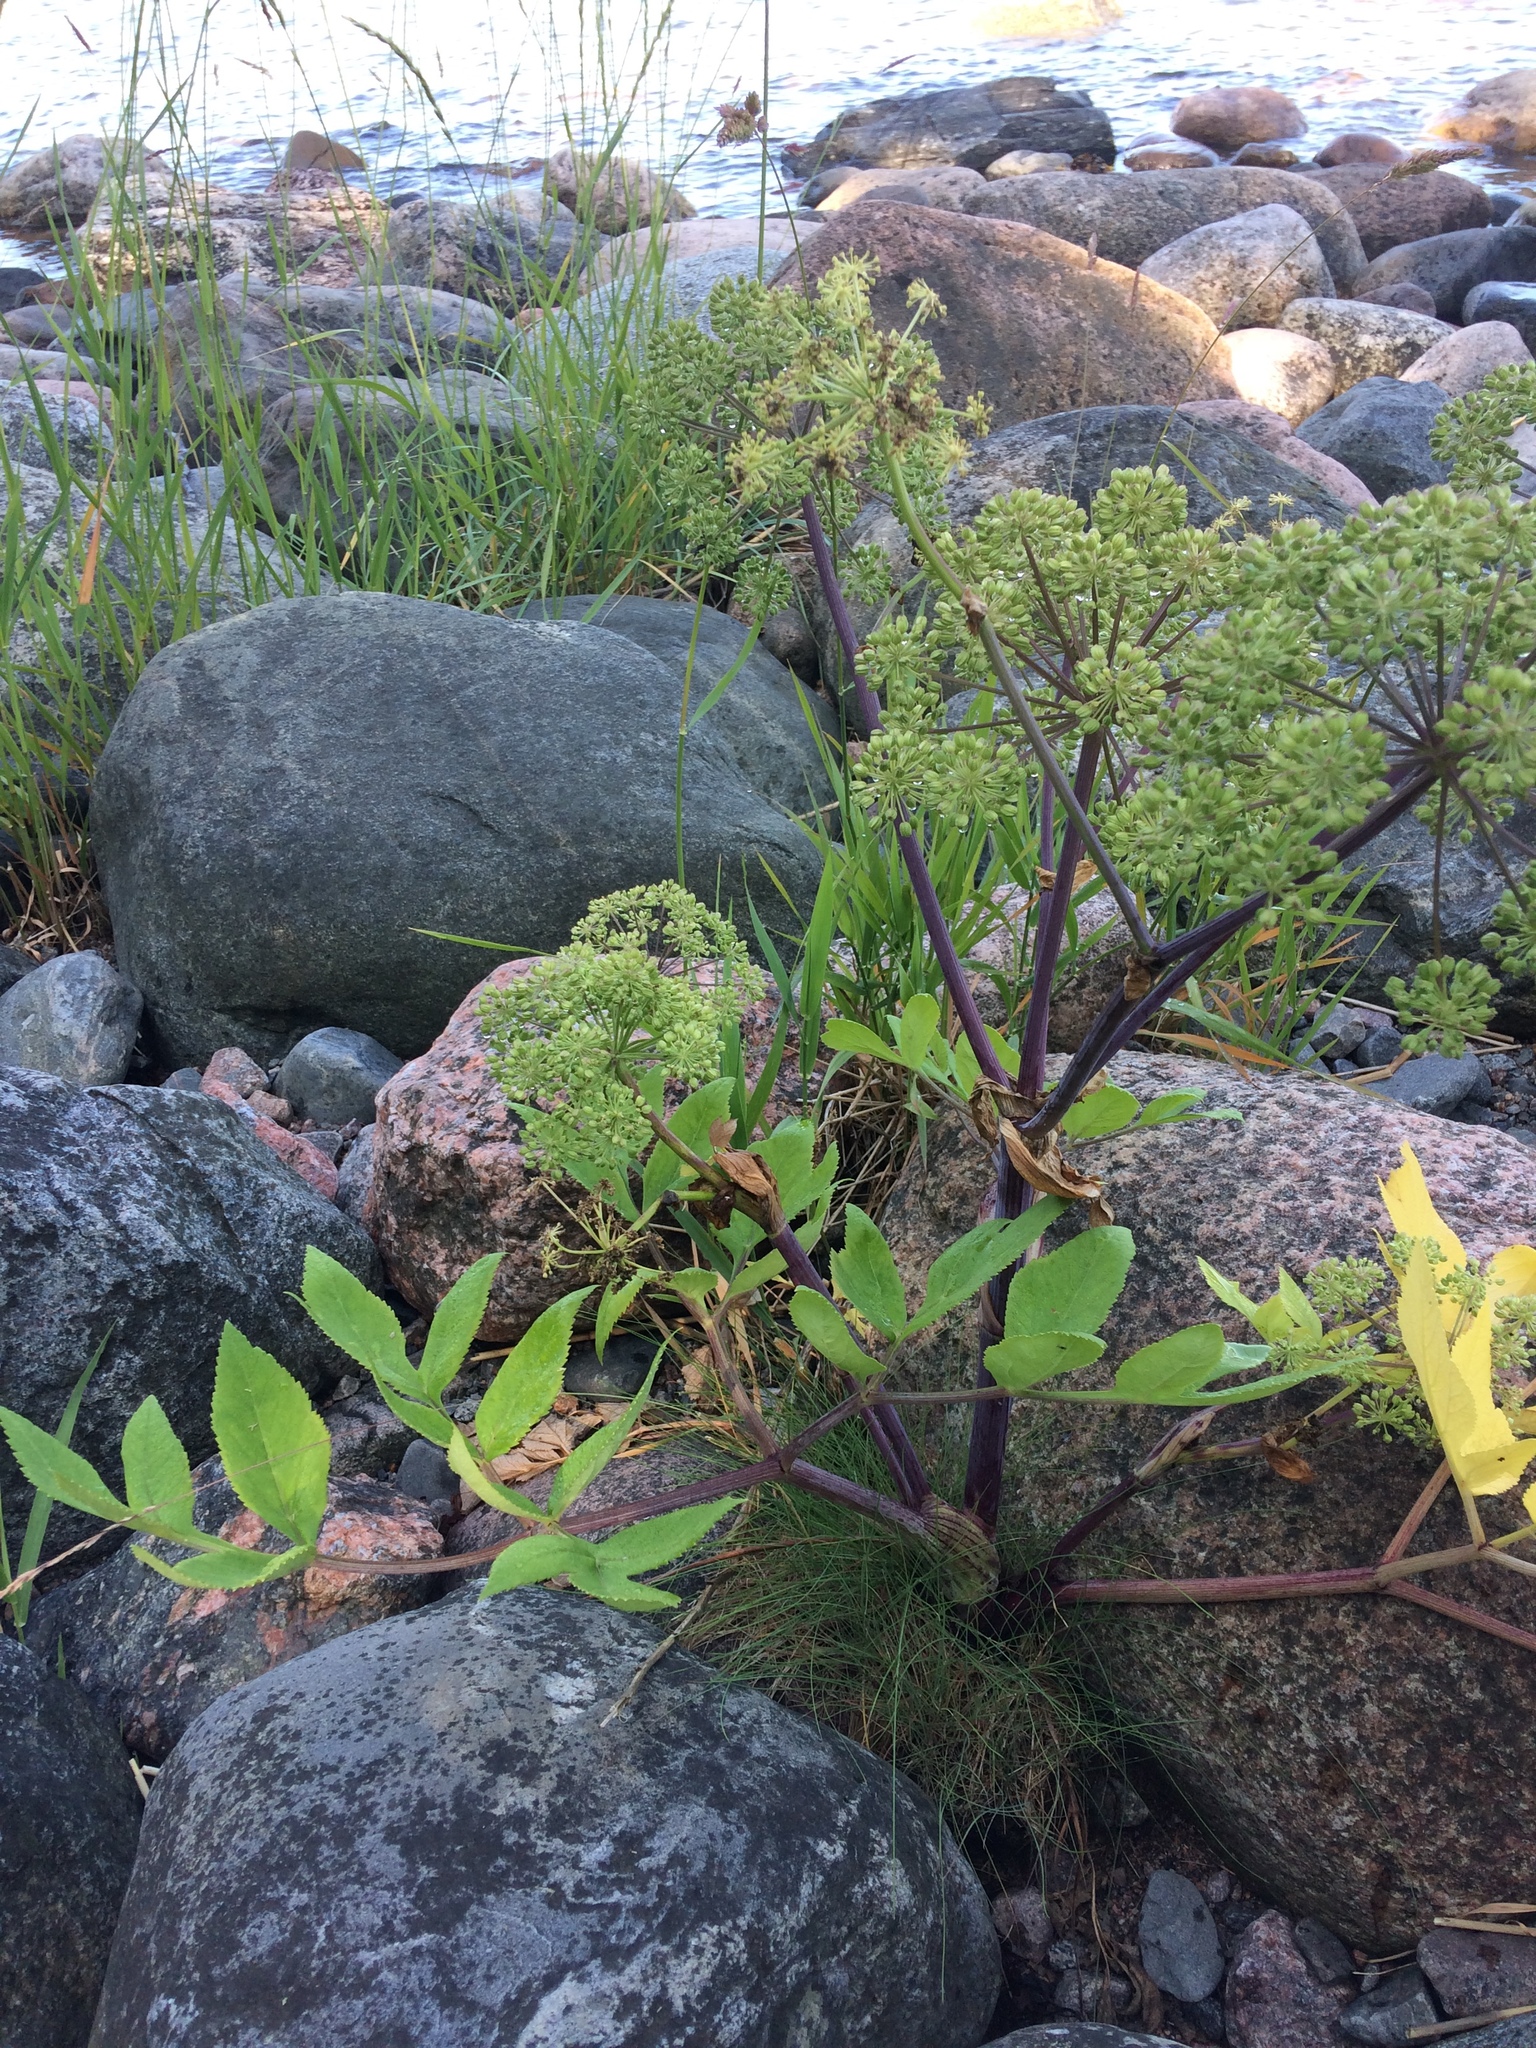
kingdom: Plantae
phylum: Tracheophyta
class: Magnoliopsida
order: Apiales
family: Apiaceae
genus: Angelica
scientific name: Angelica archangelica
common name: Garden angelica
